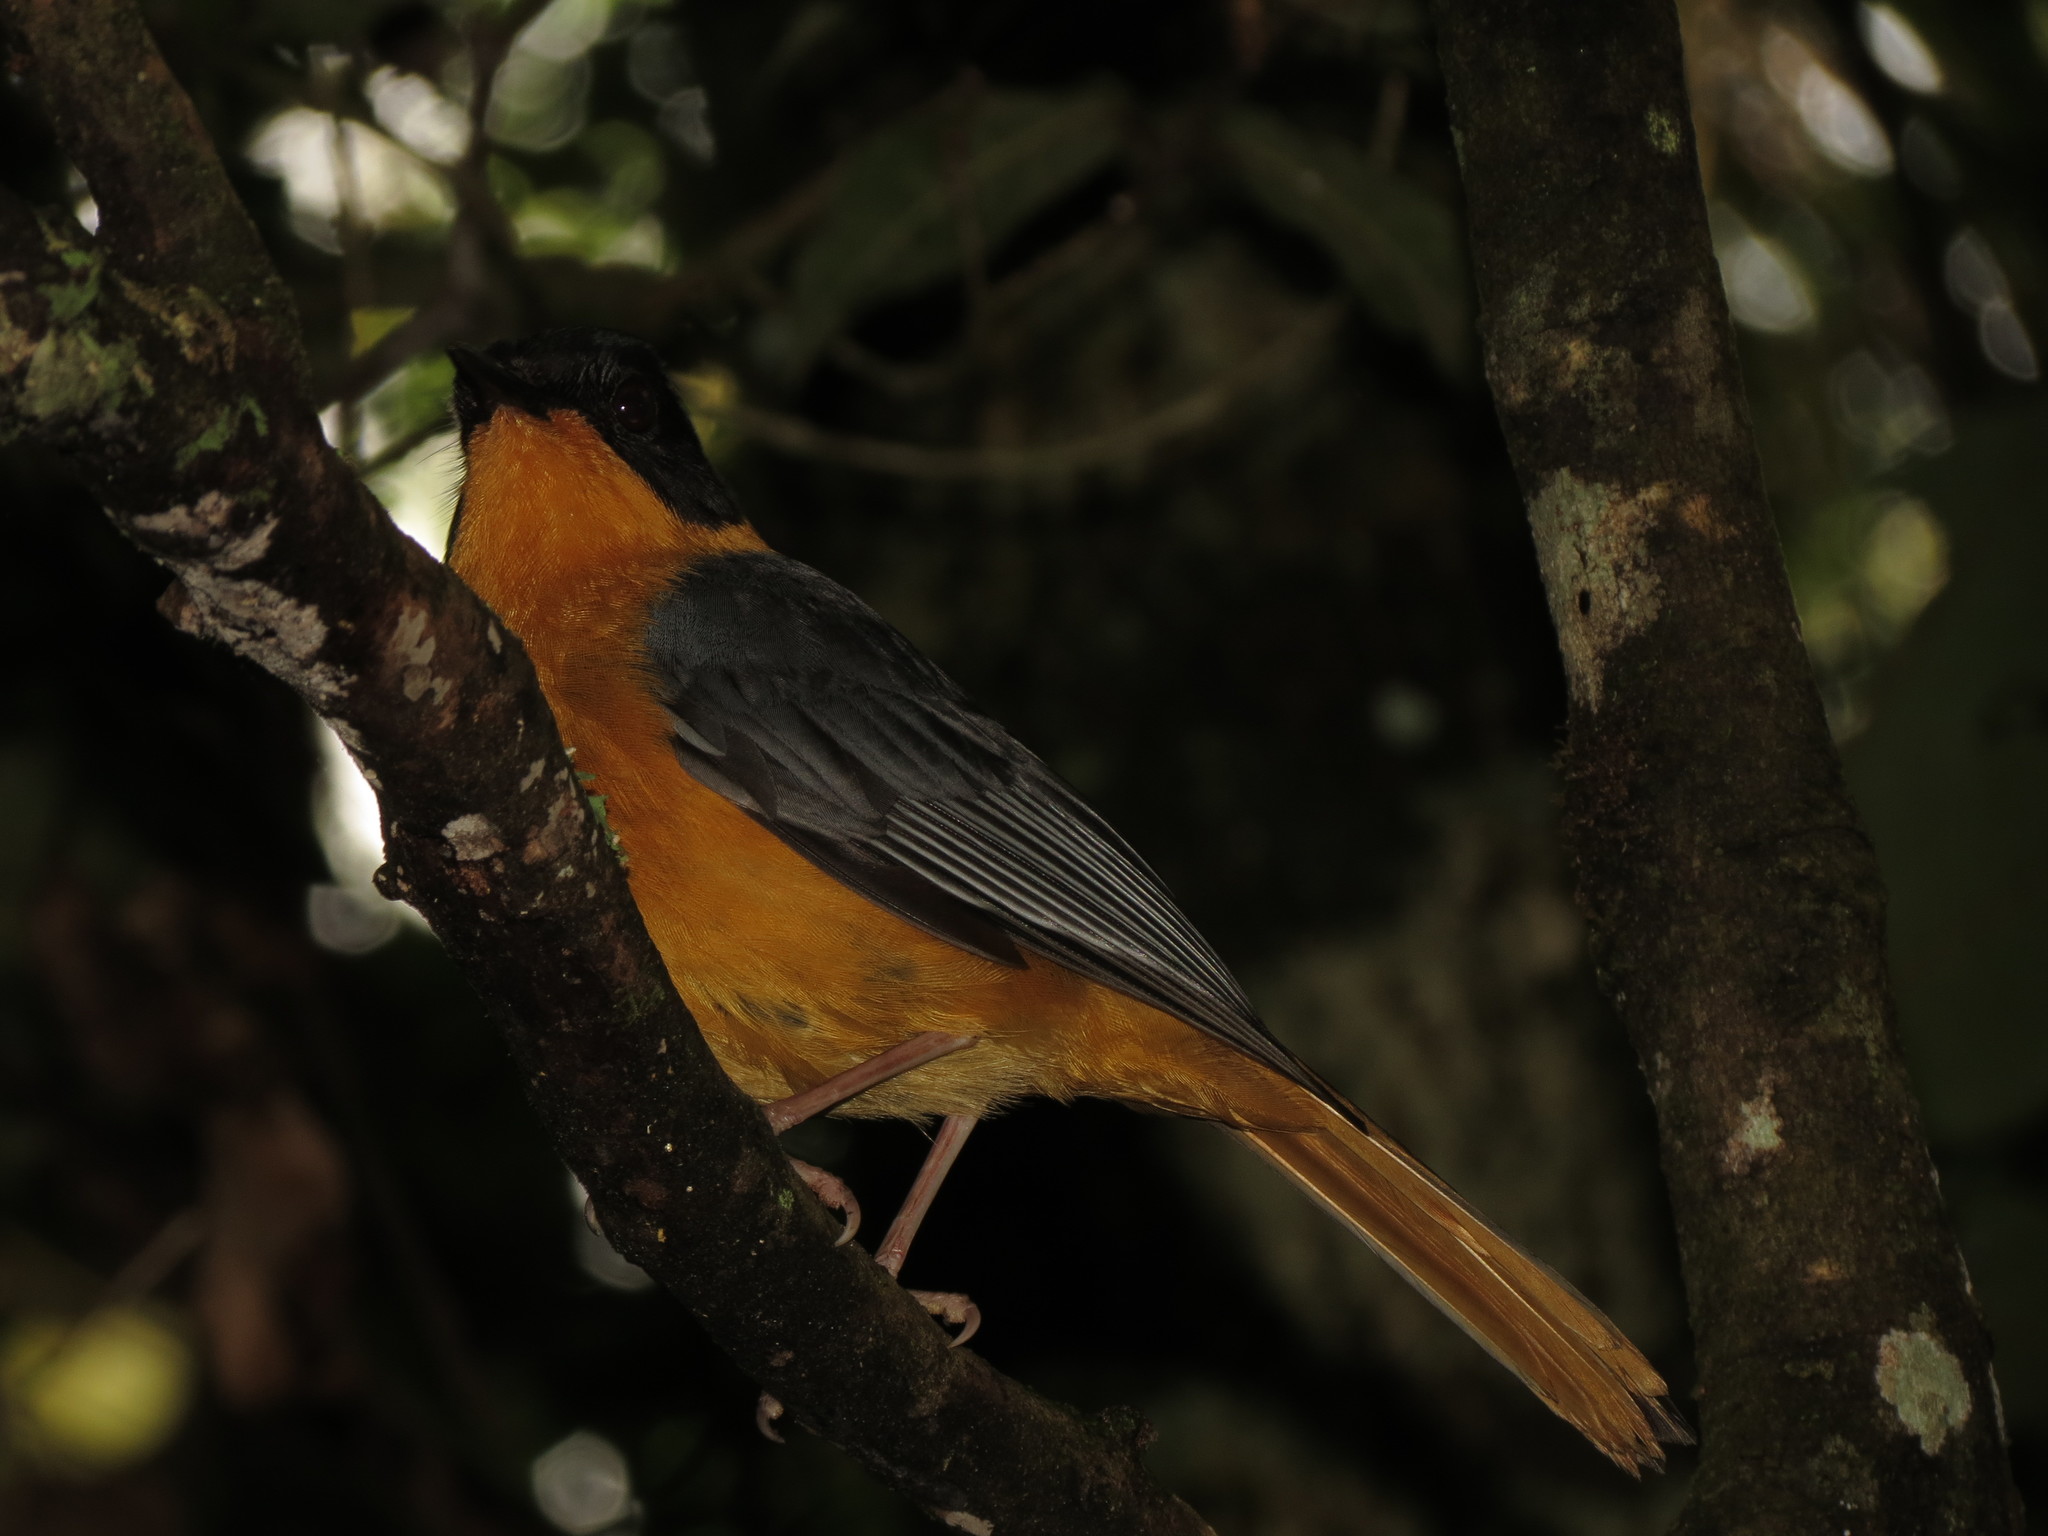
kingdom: Animalia
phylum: Chordata
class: Aves
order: Passeriformes
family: Muscicapidae
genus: Cossypha
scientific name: Cossypha dichroa
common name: Chorister robin-chat
